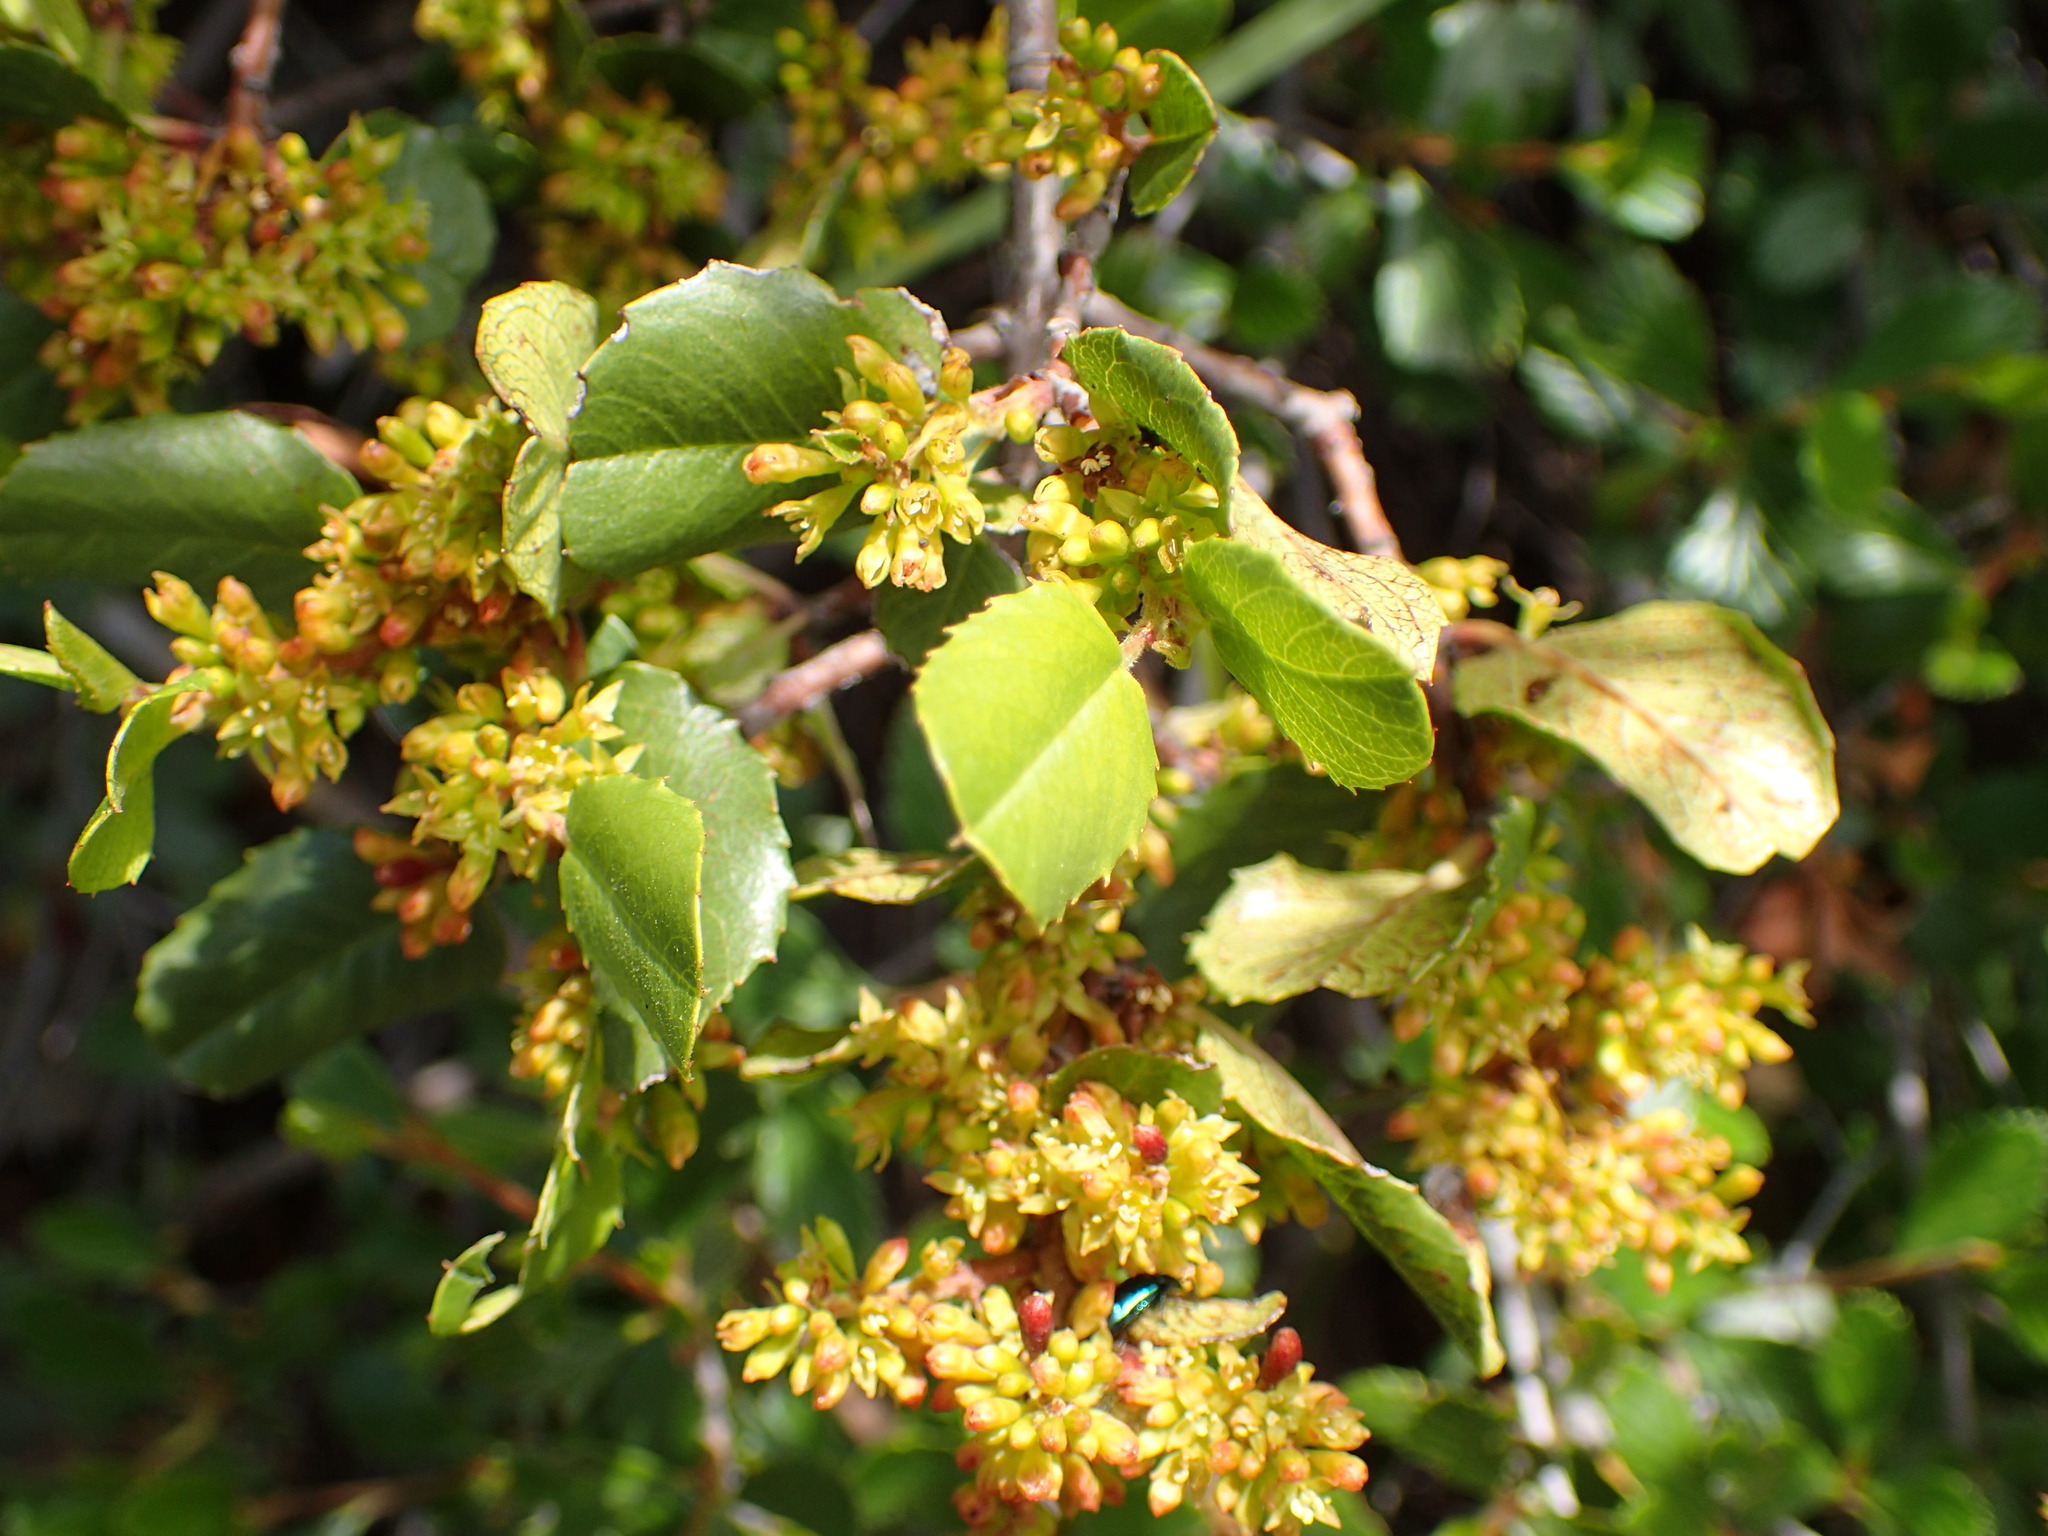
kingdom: Plantae
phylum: Tracheophyta
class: Magnoliopsida
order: Rosales
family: Rhamnaceae
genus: Endotropis
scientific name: Endotropis crocea
